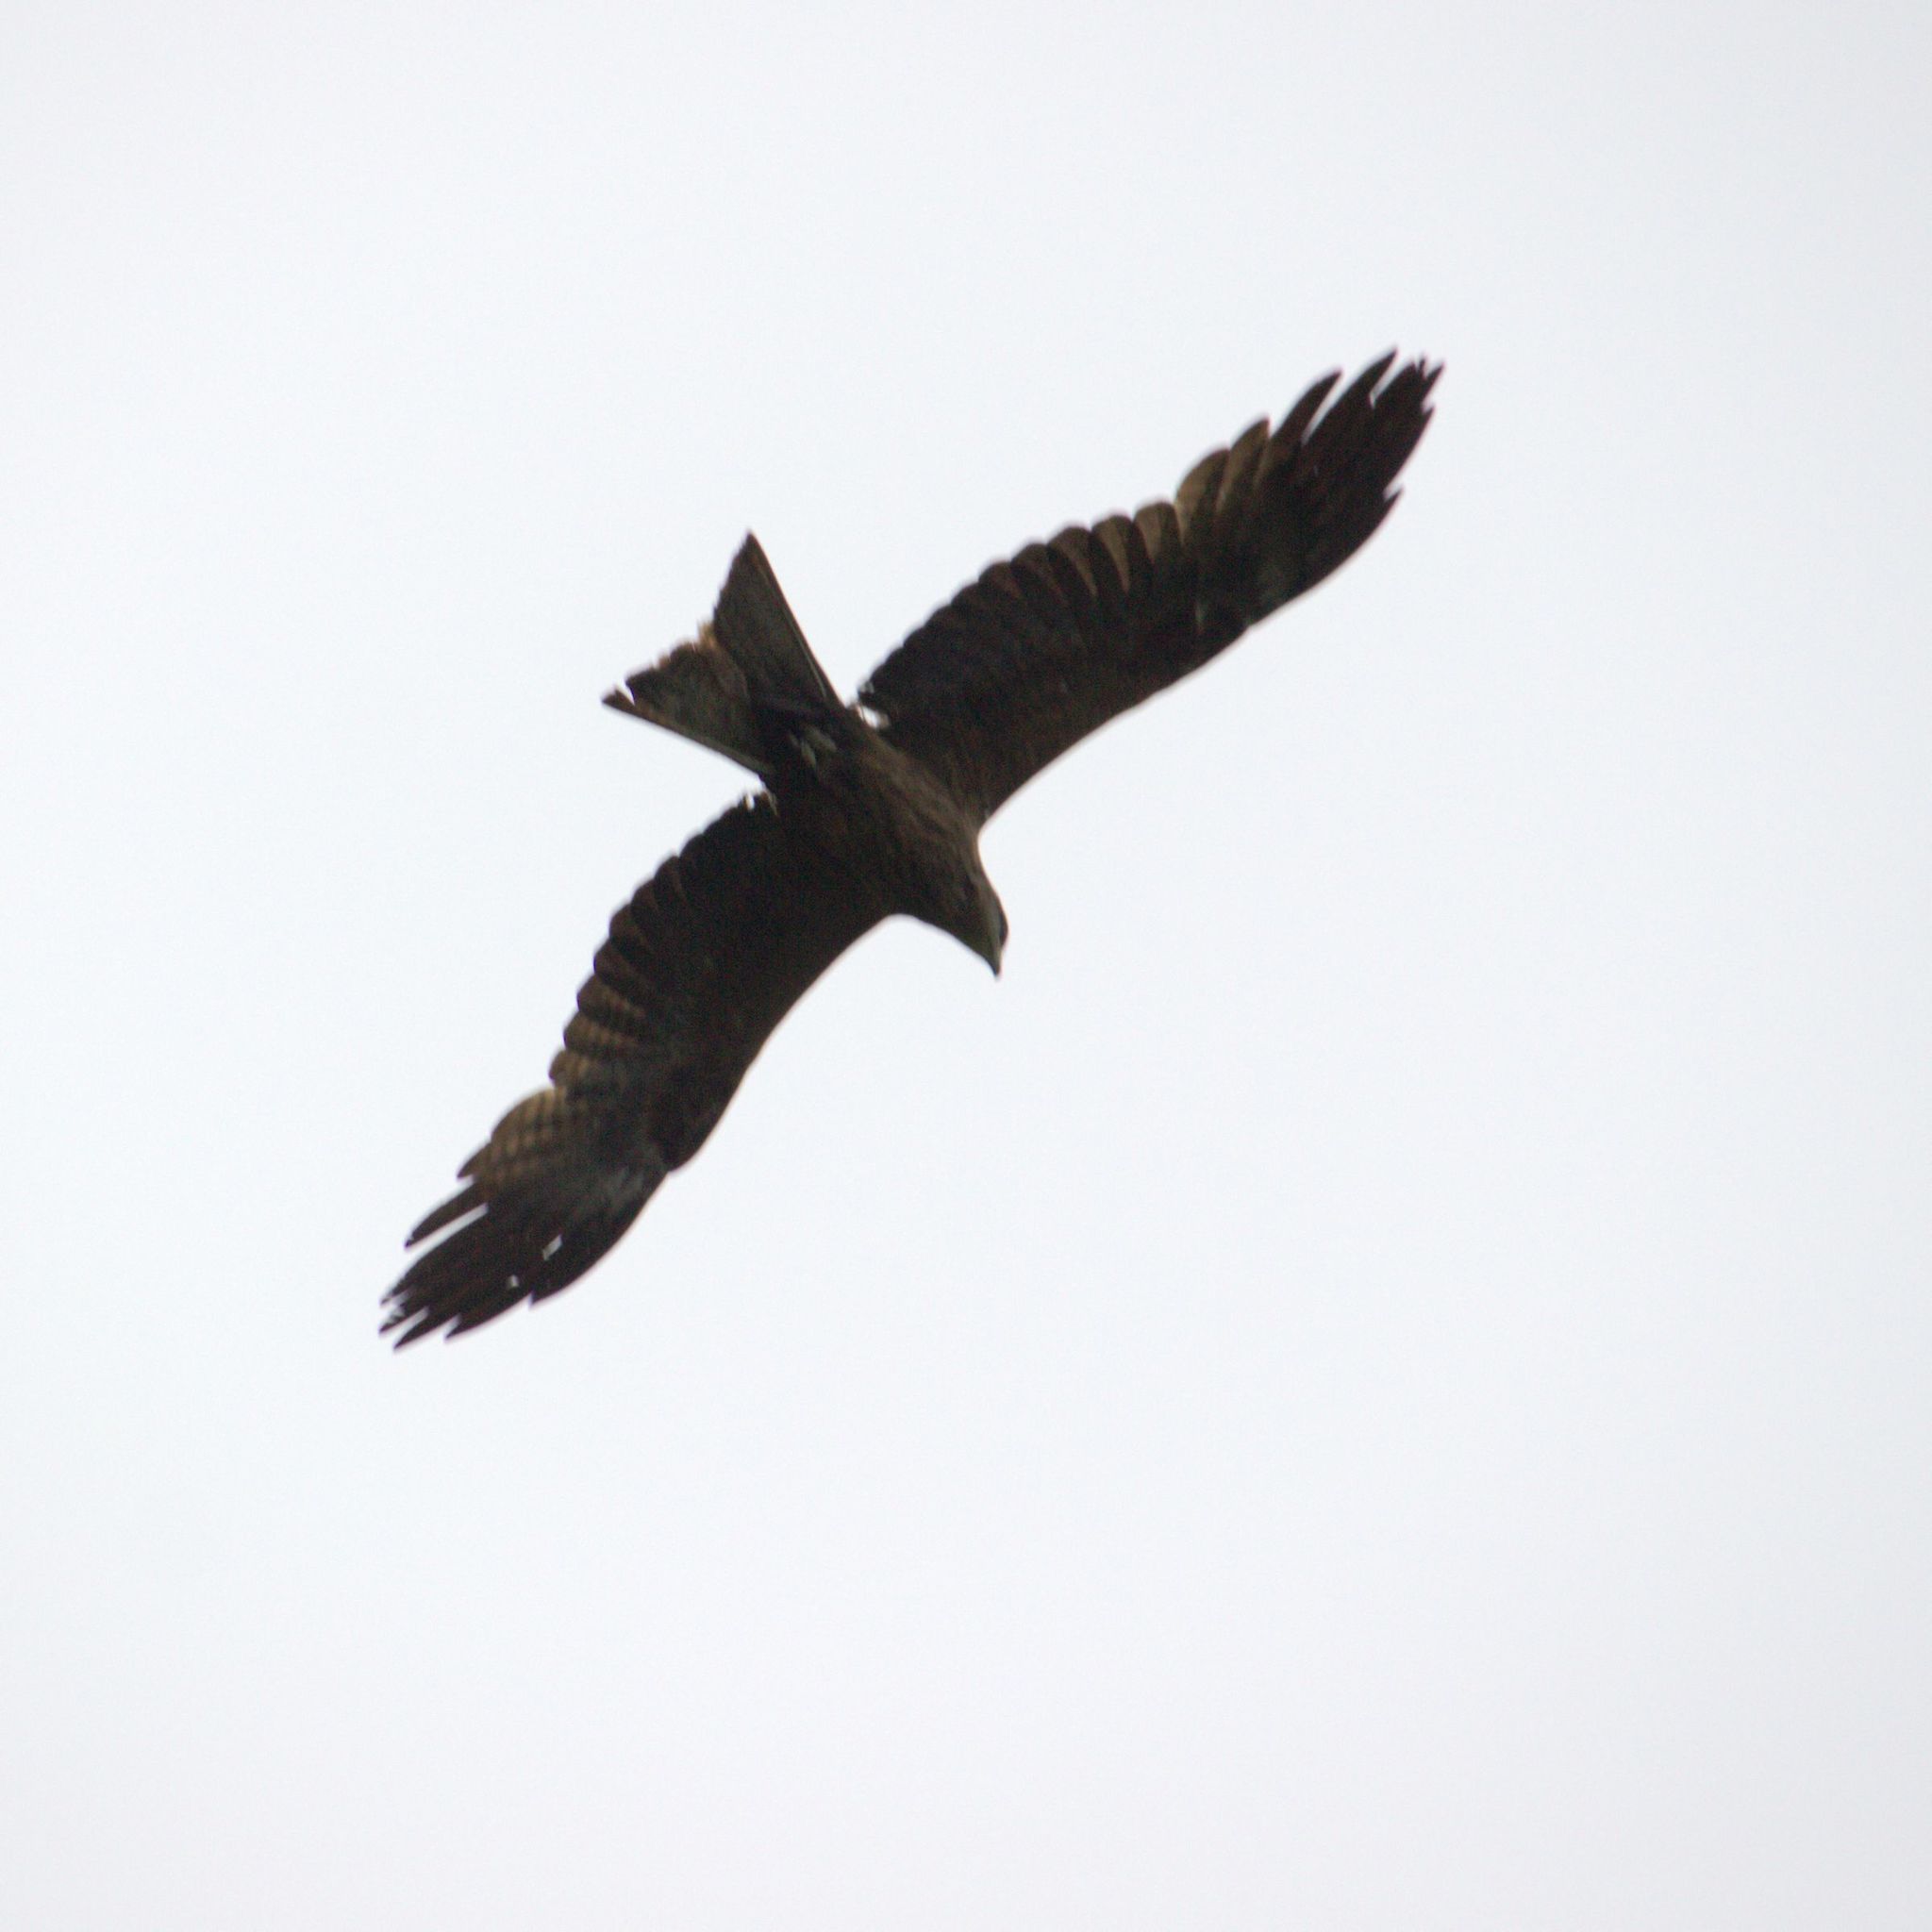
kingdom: Animalia
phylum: Chordata
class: Aves
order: Accipitriformes
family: Accipitridae
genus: Milvus
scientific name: Milvus migrans
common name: Black kite
